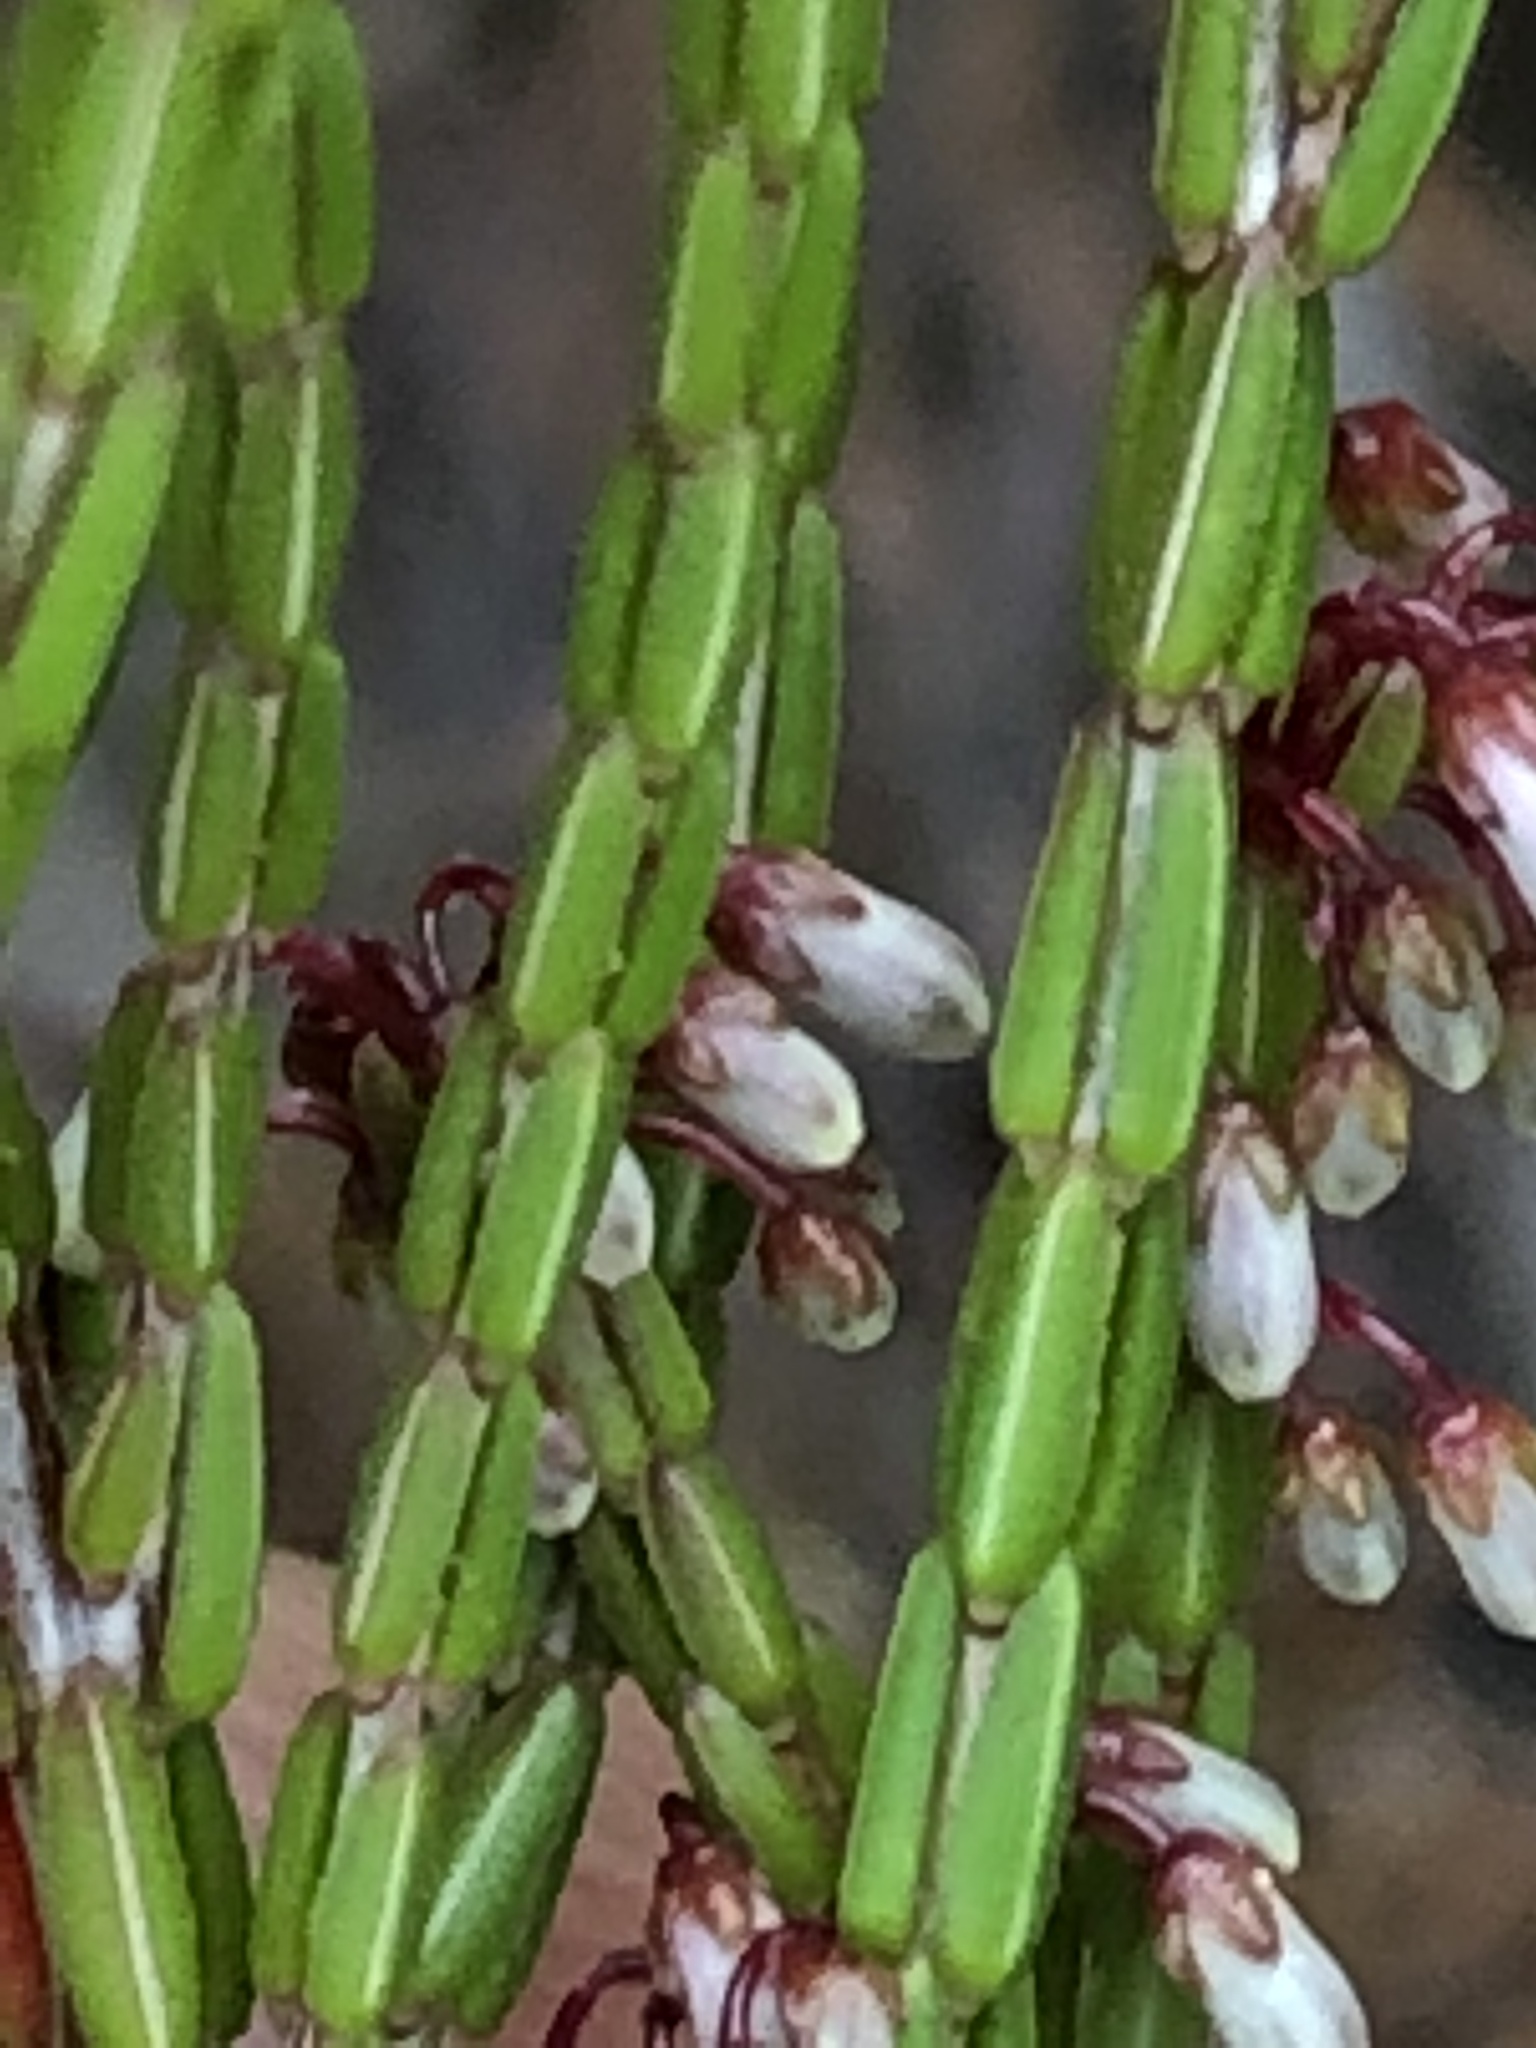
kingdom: Plantae
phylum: Tracheophyta
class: Magnoliopsida
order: Ericales
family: Ericaceae
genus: Erica
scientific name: Erica equisetifolia
